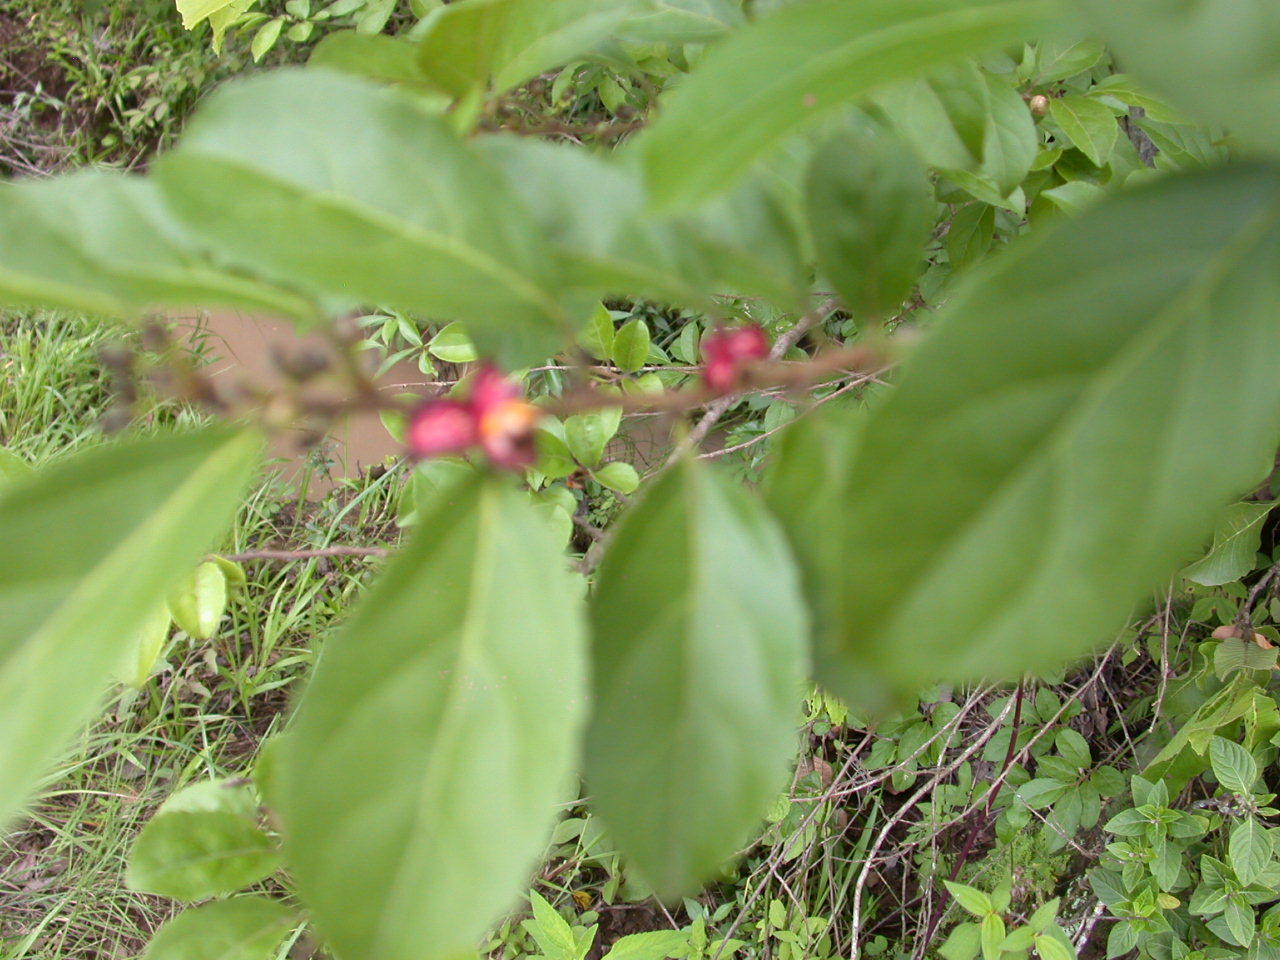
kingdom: Plantae
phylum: Tracheophyta
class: Magnoliopsida
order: Malpighiales
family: Salicaceae
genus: Casearia
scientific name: Casearia aculeata
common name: Cockspur
